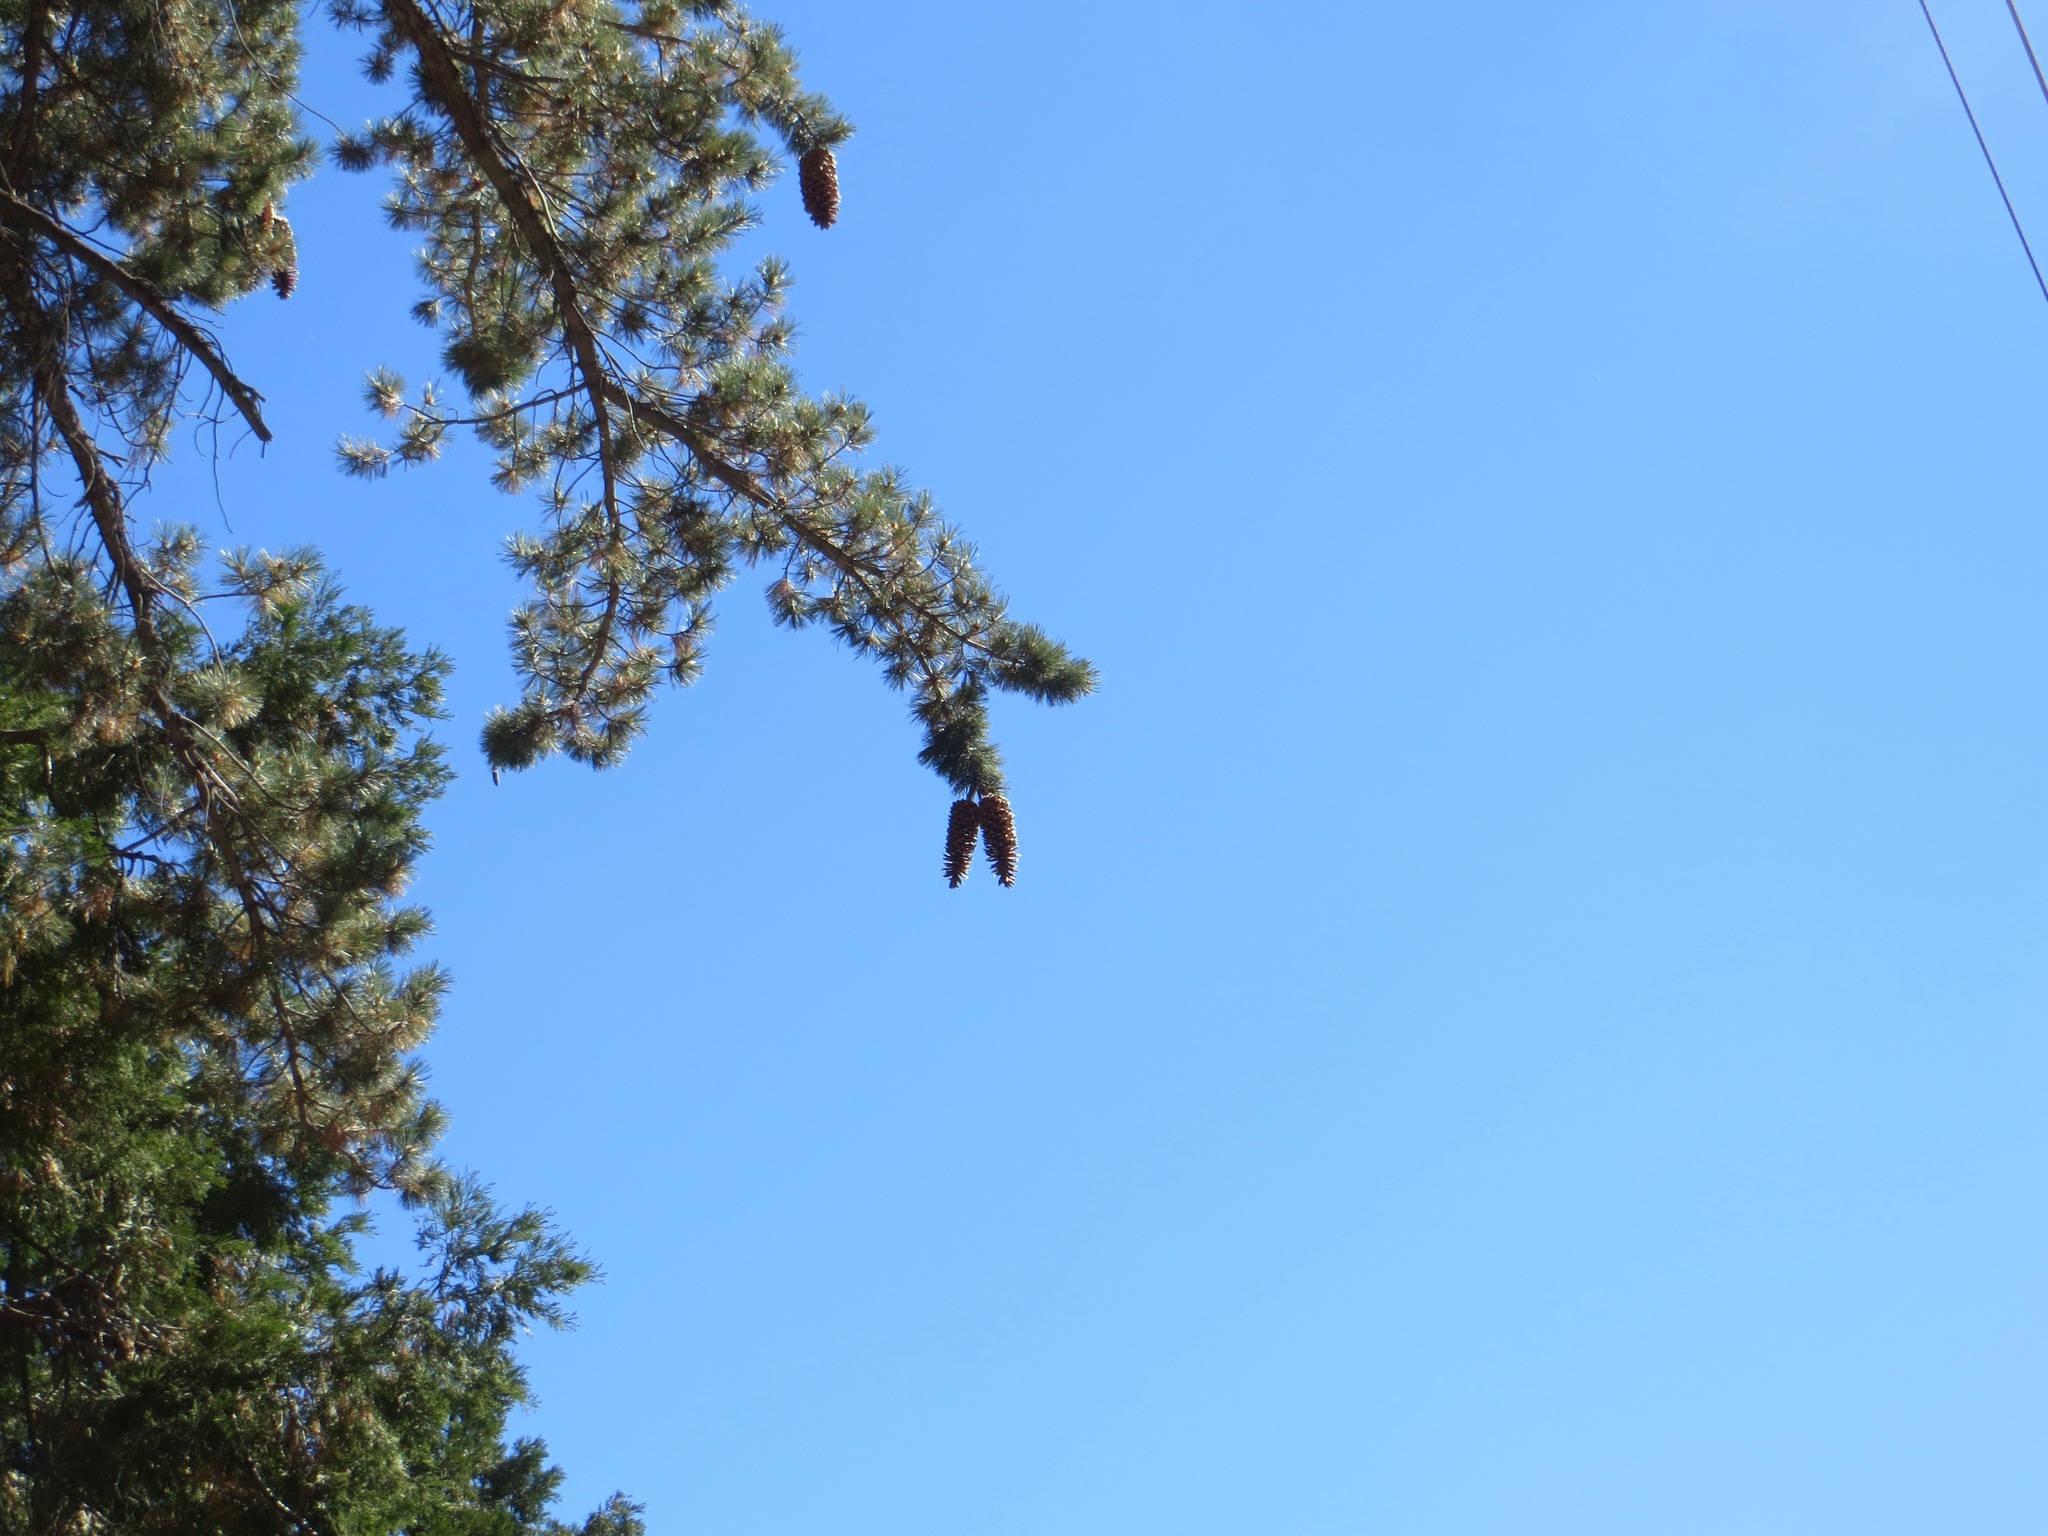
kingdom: Plantae
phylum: Tracheophyta
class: Pinopsida
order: Pinales
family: Pinaceae
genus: Pinus
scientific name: Pinus lambertiana
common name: Sugar pine
